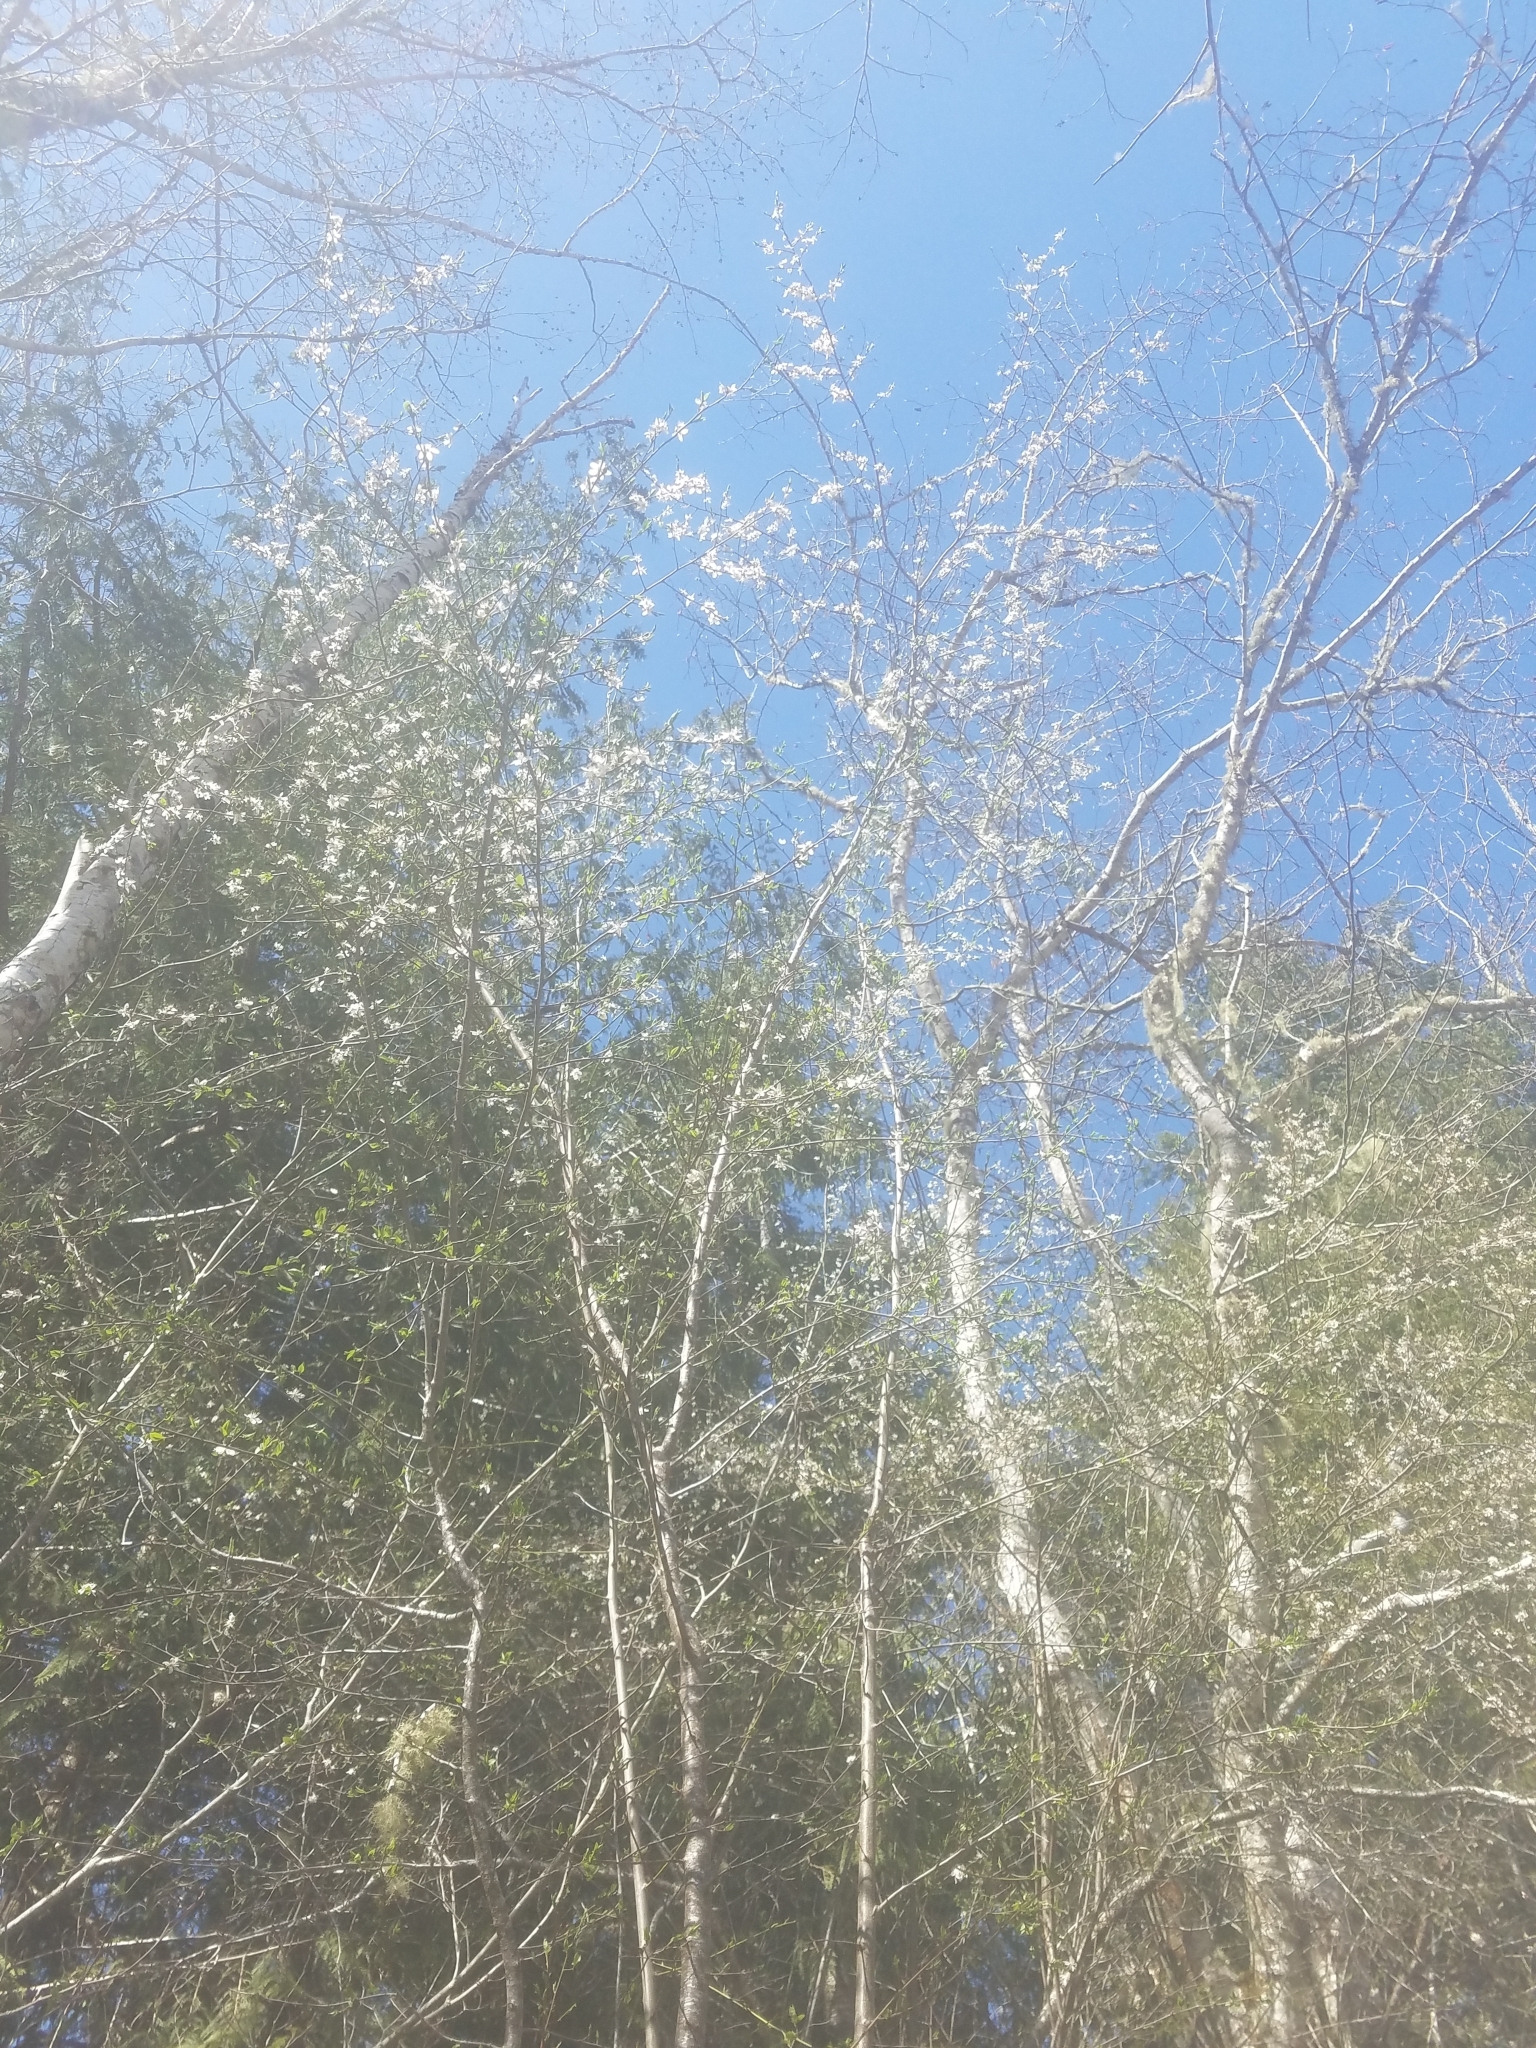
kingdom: Plantae
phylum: Tracheophyta
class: Magnoliopsida
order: Rosales
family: Rosaceae
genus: Prunus
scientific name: Prunus cerasifera
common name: Cherry plum
